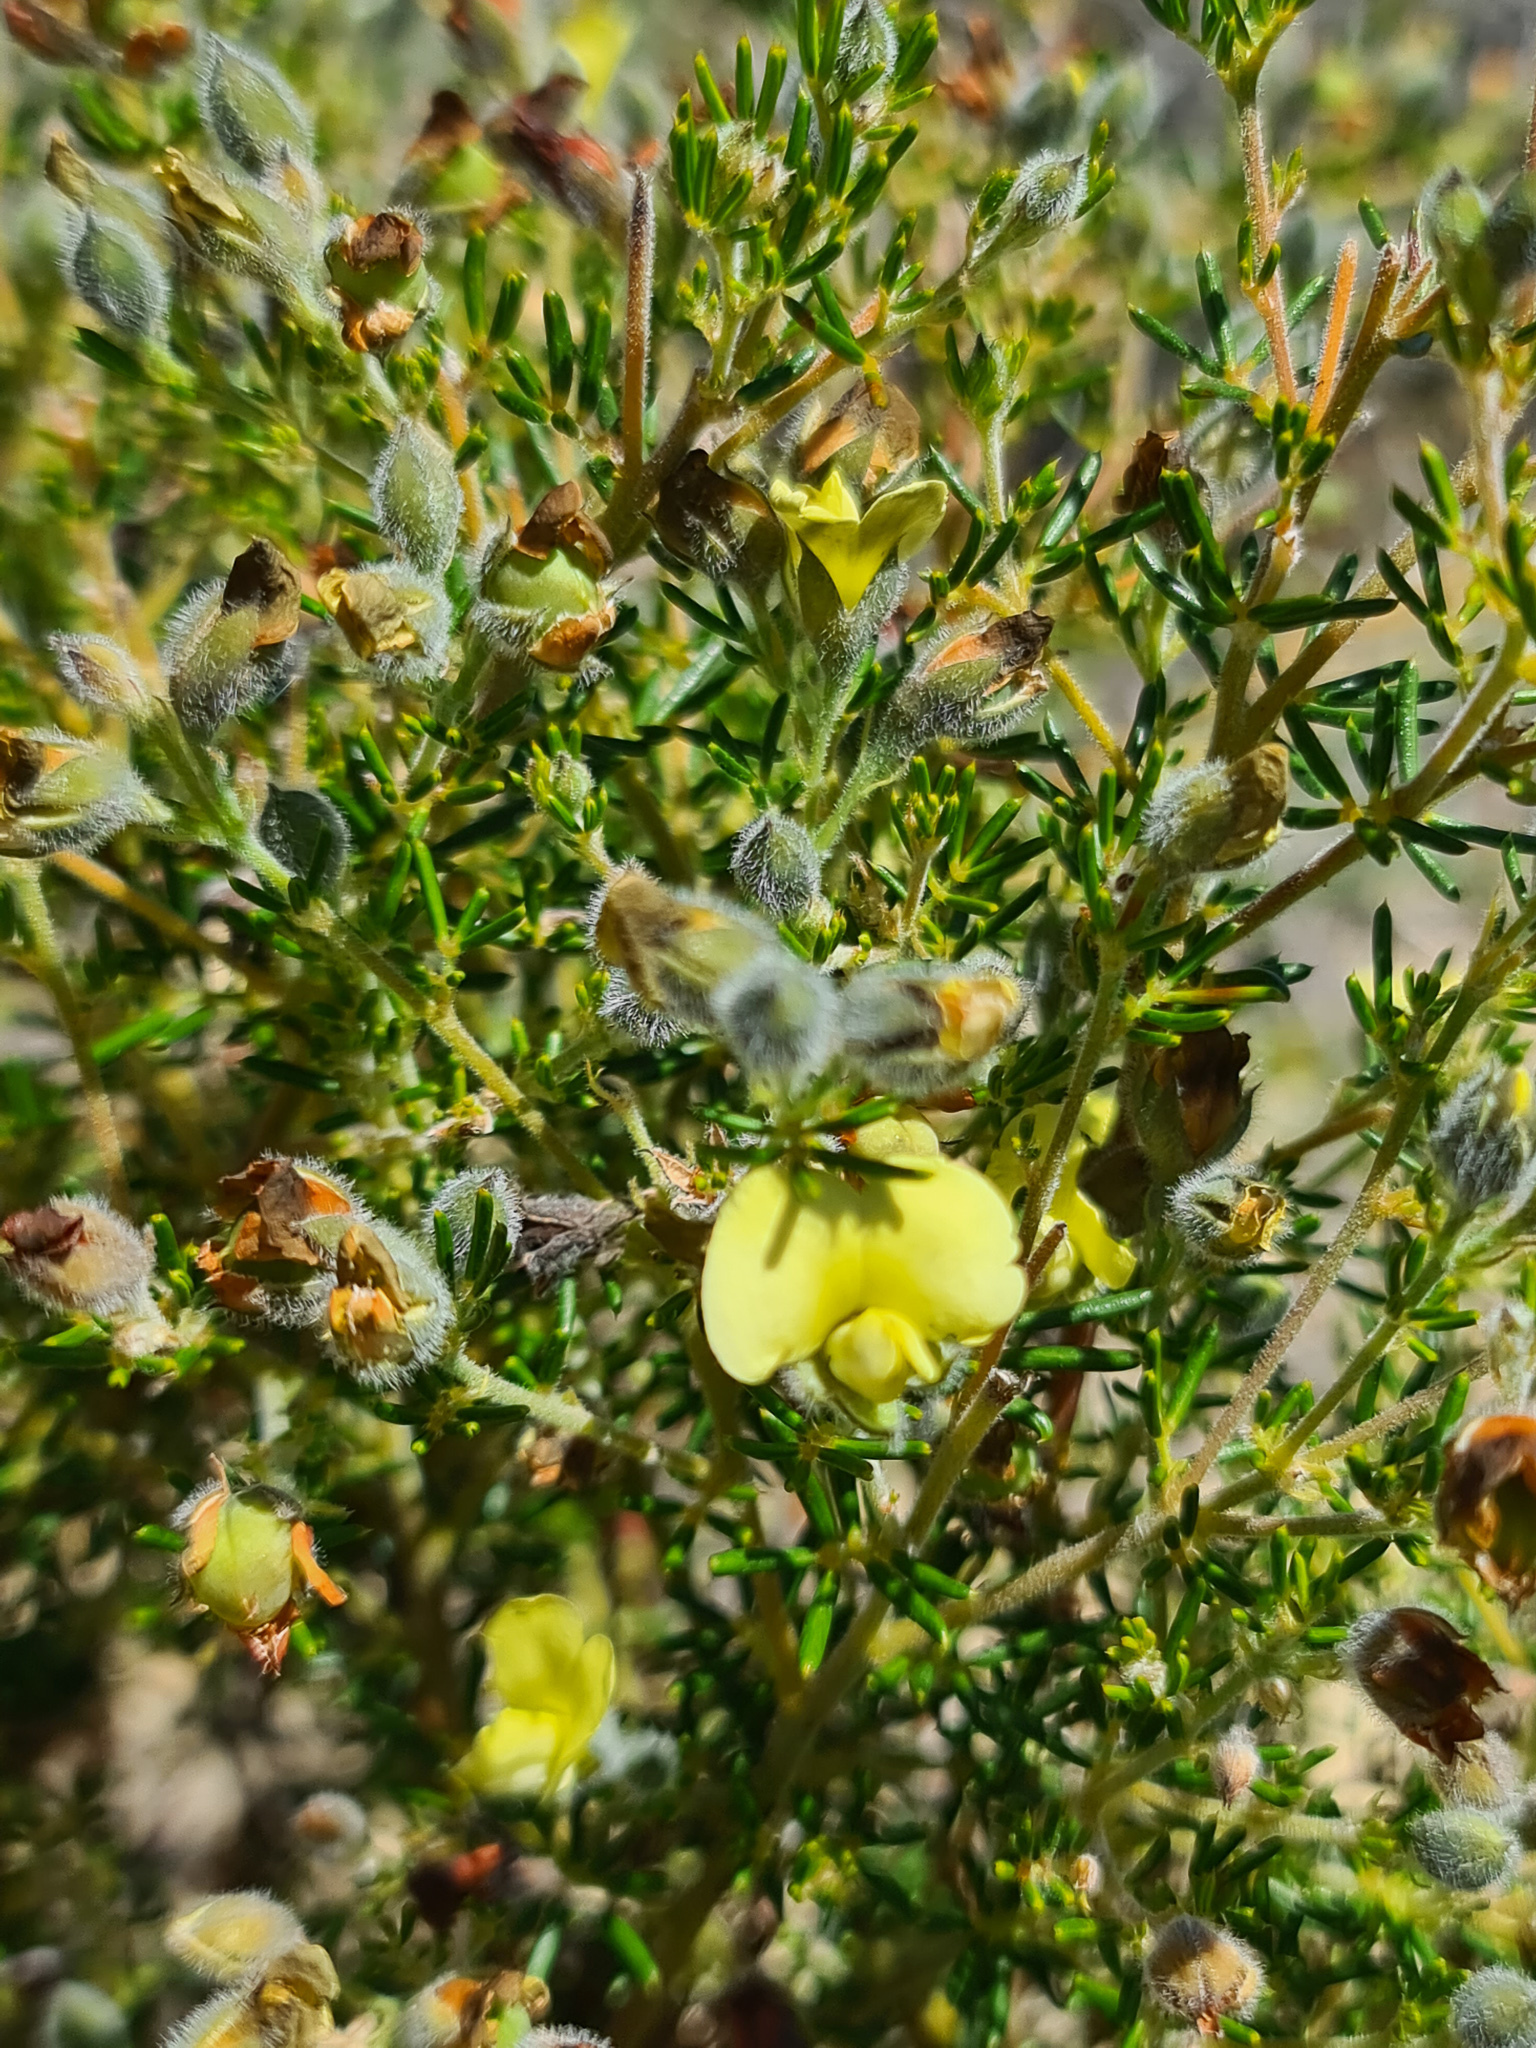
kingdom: Plantae
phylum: Tracheophyta
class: Magnoliopsida
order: Fabales
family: Fabaceae
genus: Gompholobium
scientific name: Gompholobium tomentosum
